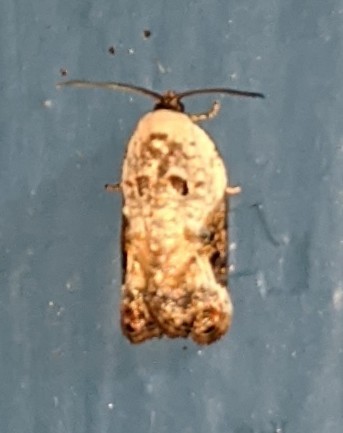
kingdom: Animalia
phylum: Arthropoda
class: Insecta
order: Lepidoptera
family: Tortricidae
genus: Acleris
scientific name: Acleris nivisellana
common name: Snowy-shouldered acleris moth
